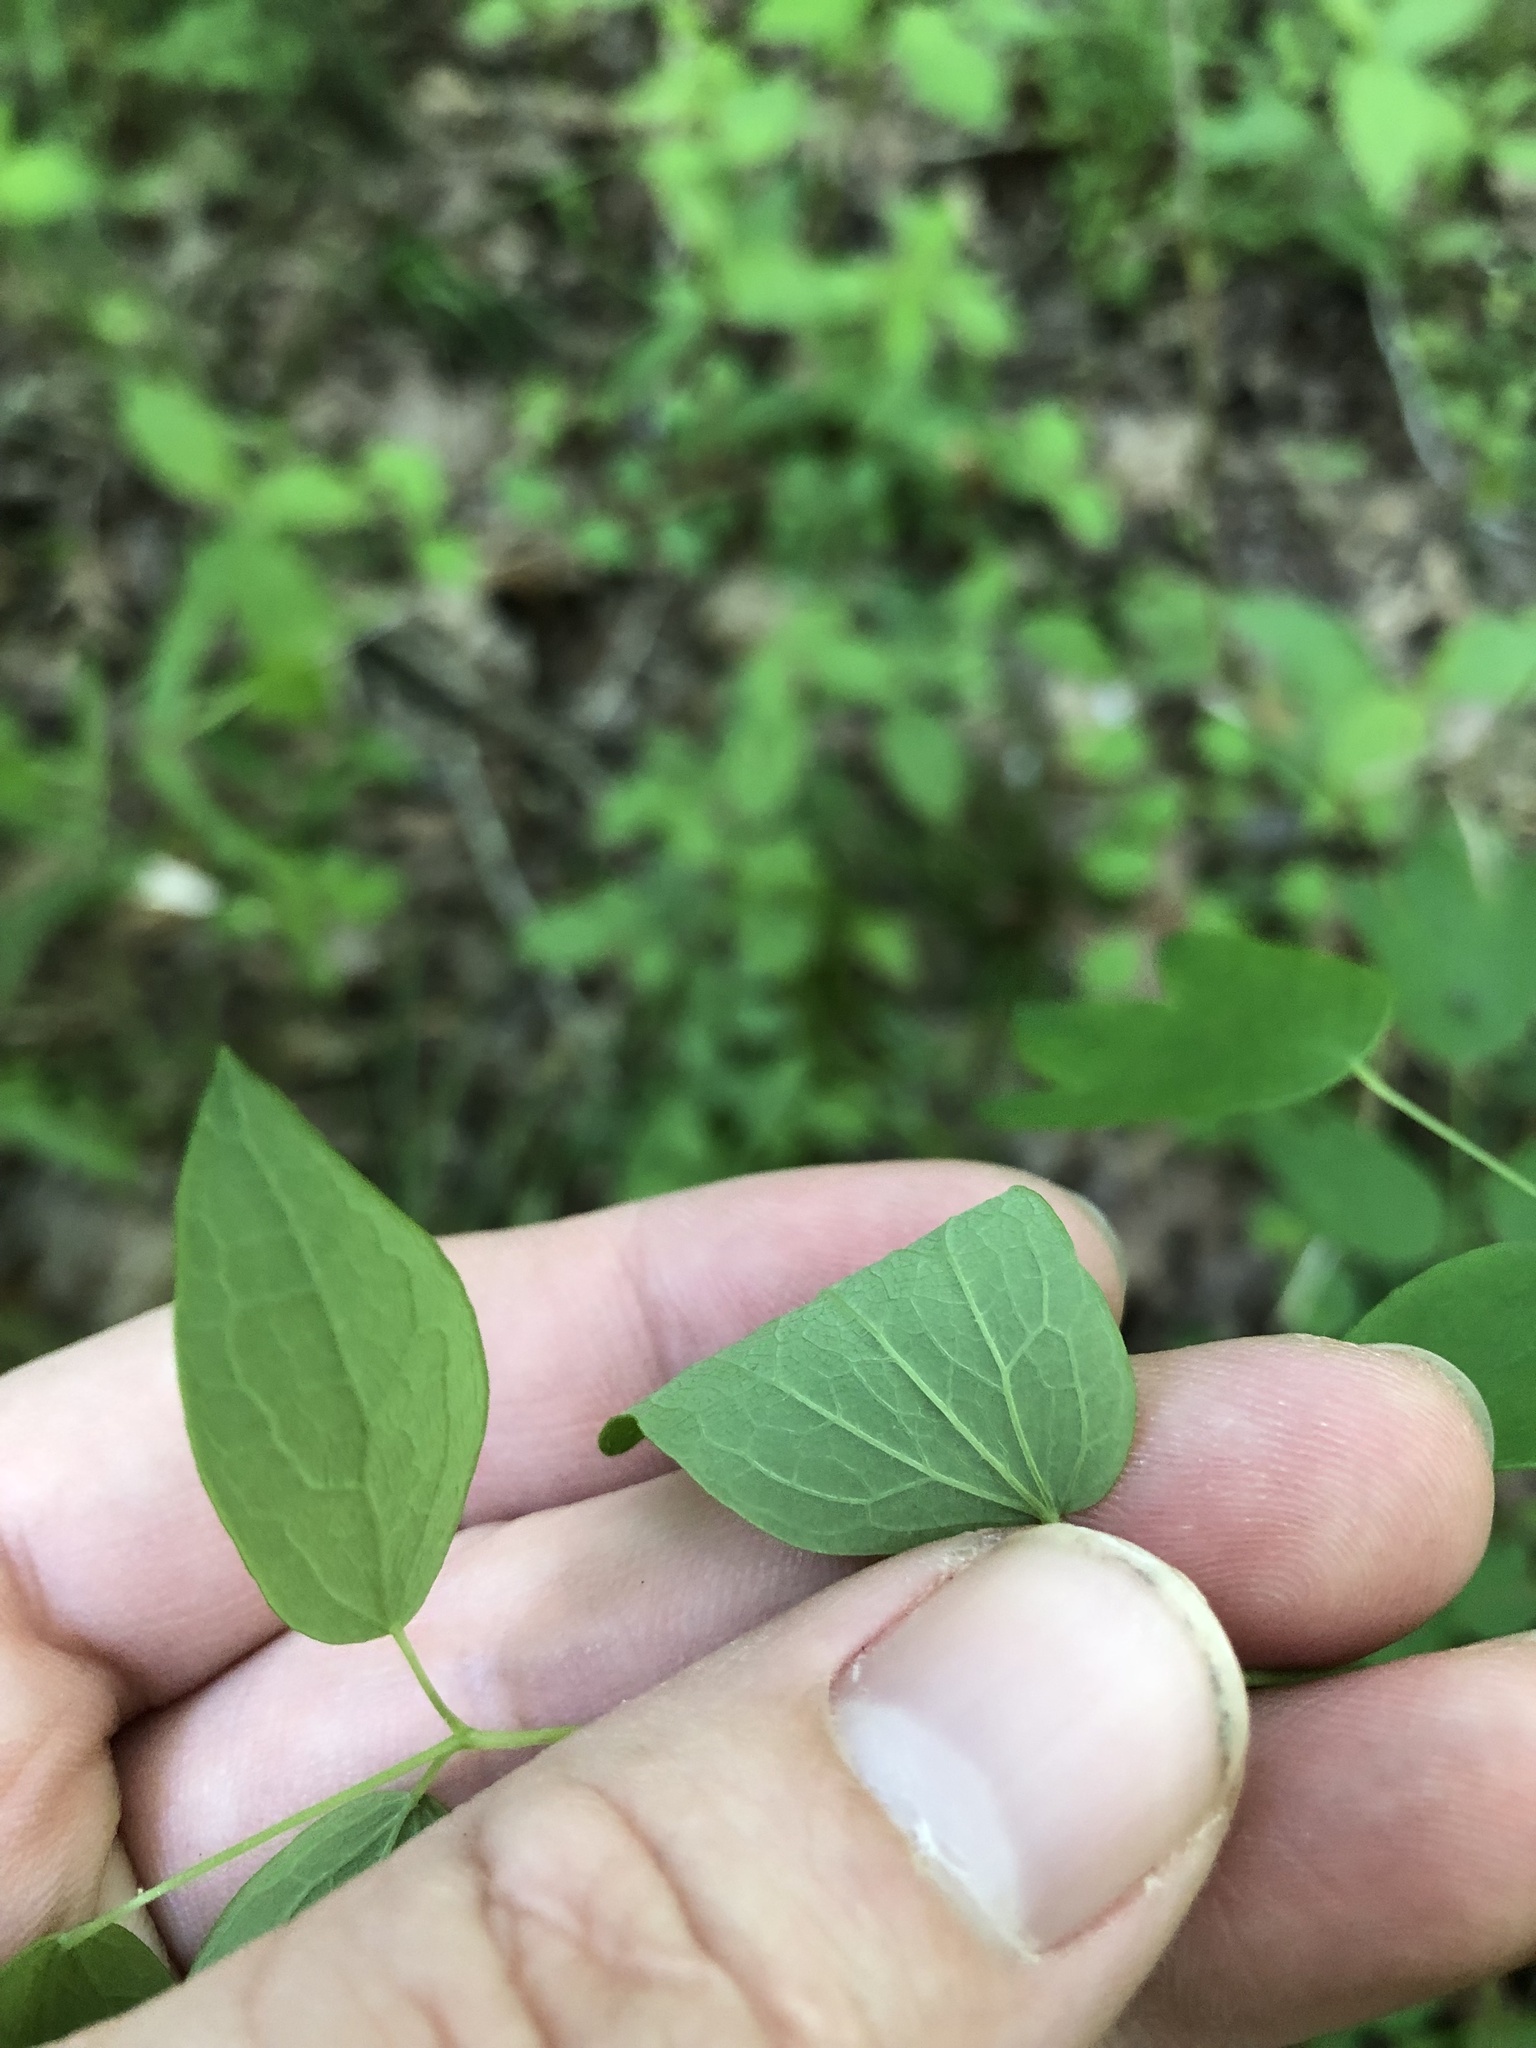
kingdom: Plantae
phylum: Tracheophyta
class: Magnoliopsida
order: Ranunculales
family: Ranunculaceae
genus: Thalictrum
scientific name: Thalictrum revolutum
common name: Waxy meadow-rue
